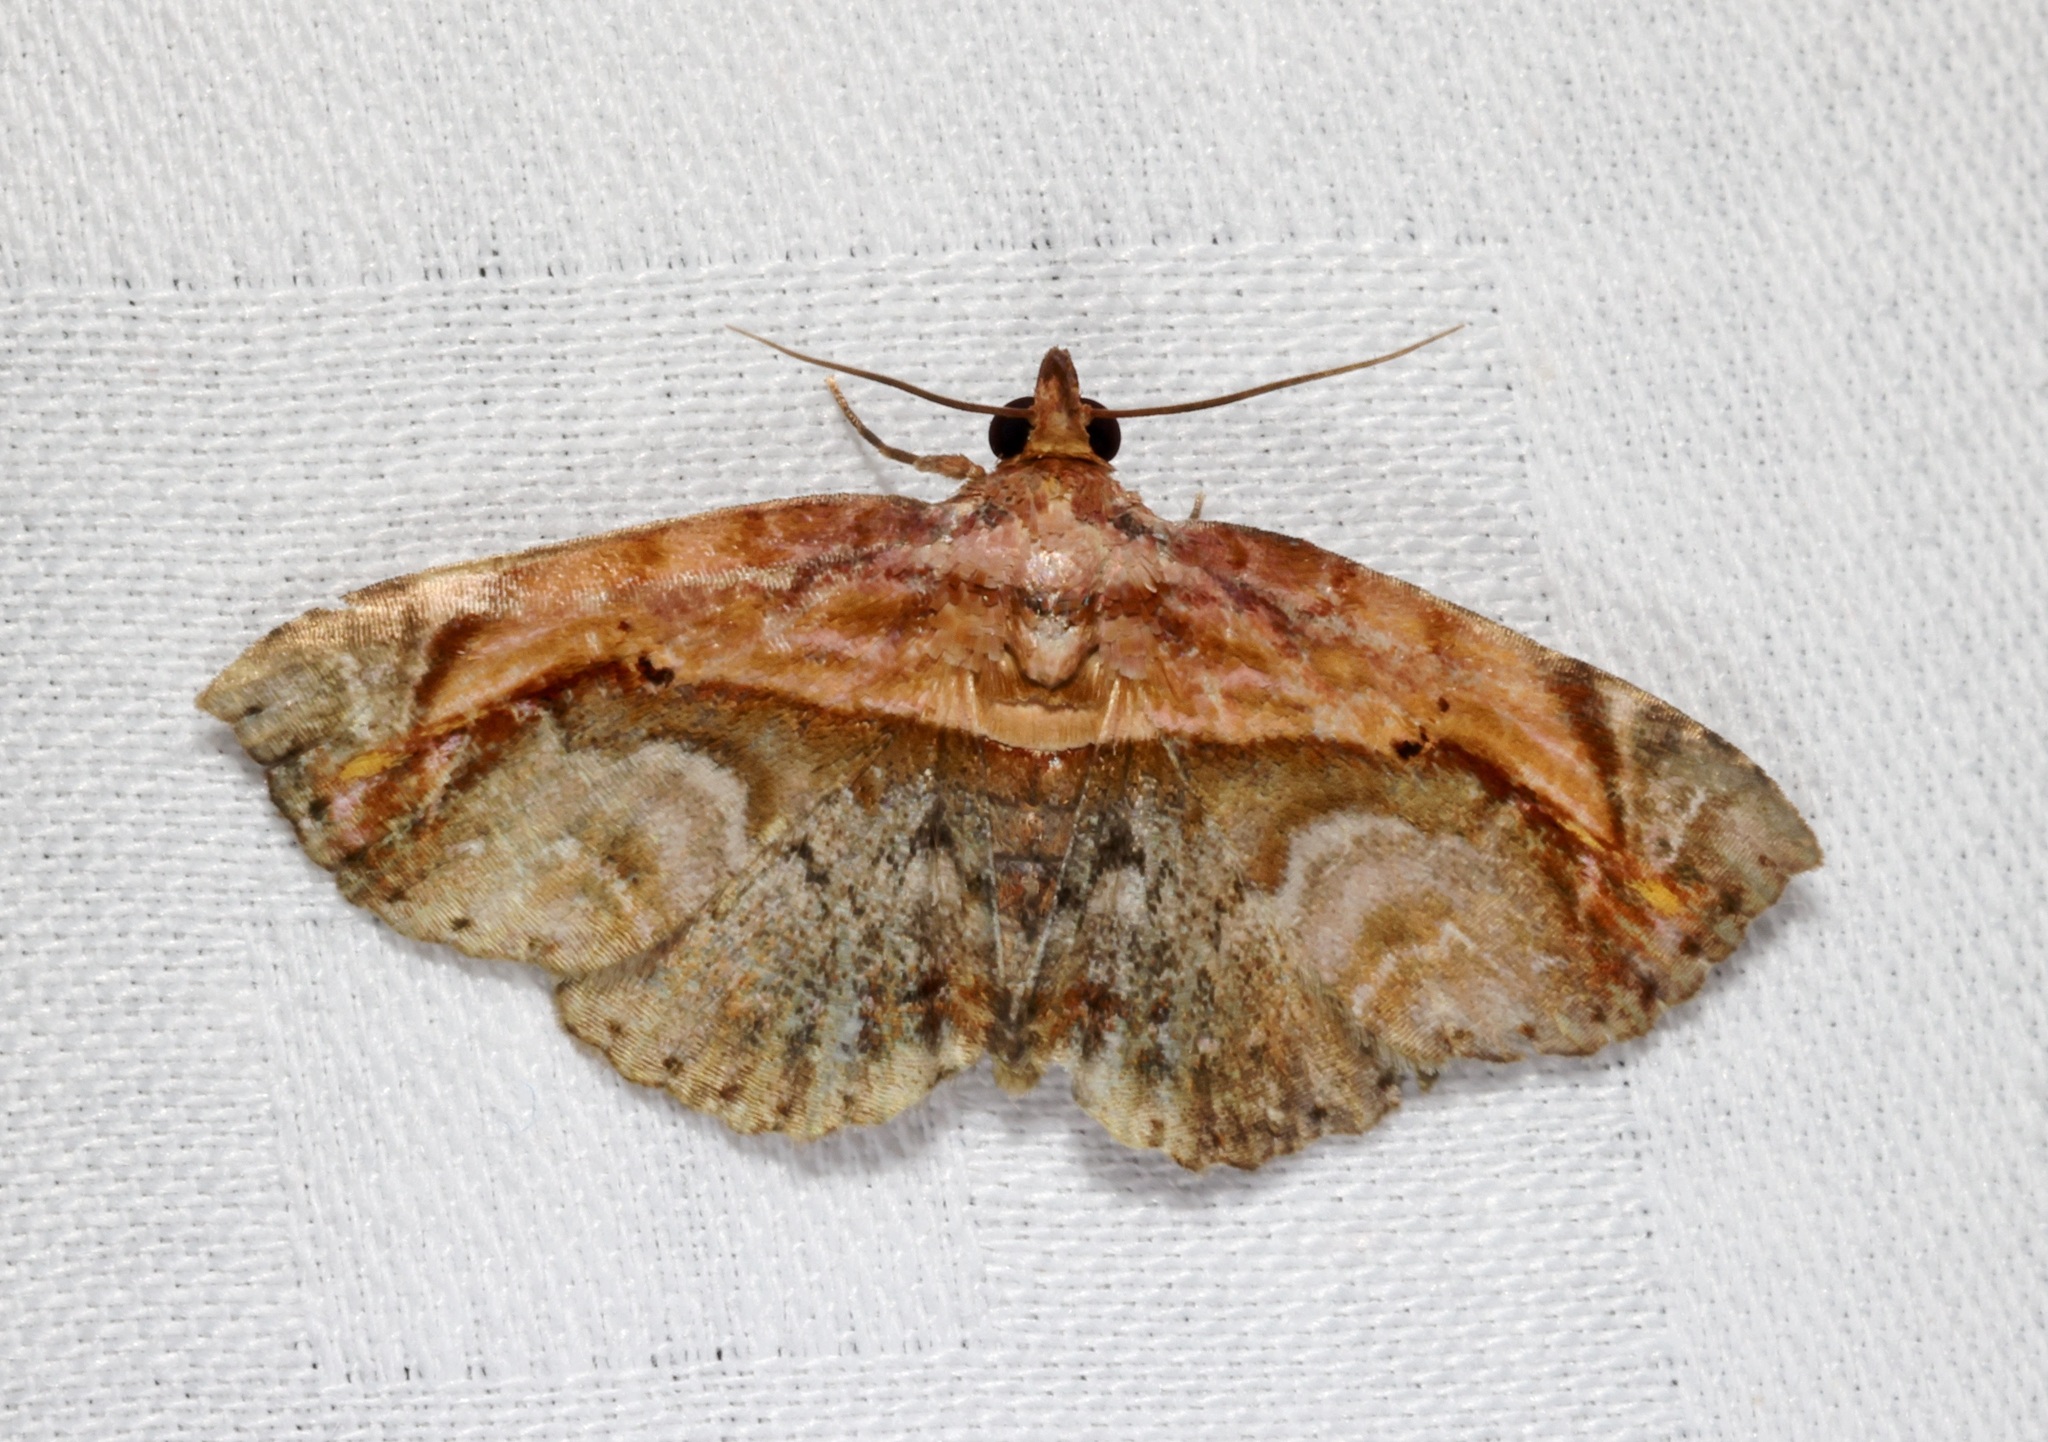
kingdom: Animalia
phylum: Arthropoda
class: Insecta
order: Lepidoptera
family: Noctuidae
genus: Lophoruza
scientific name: Lophoruza pulcherrima
